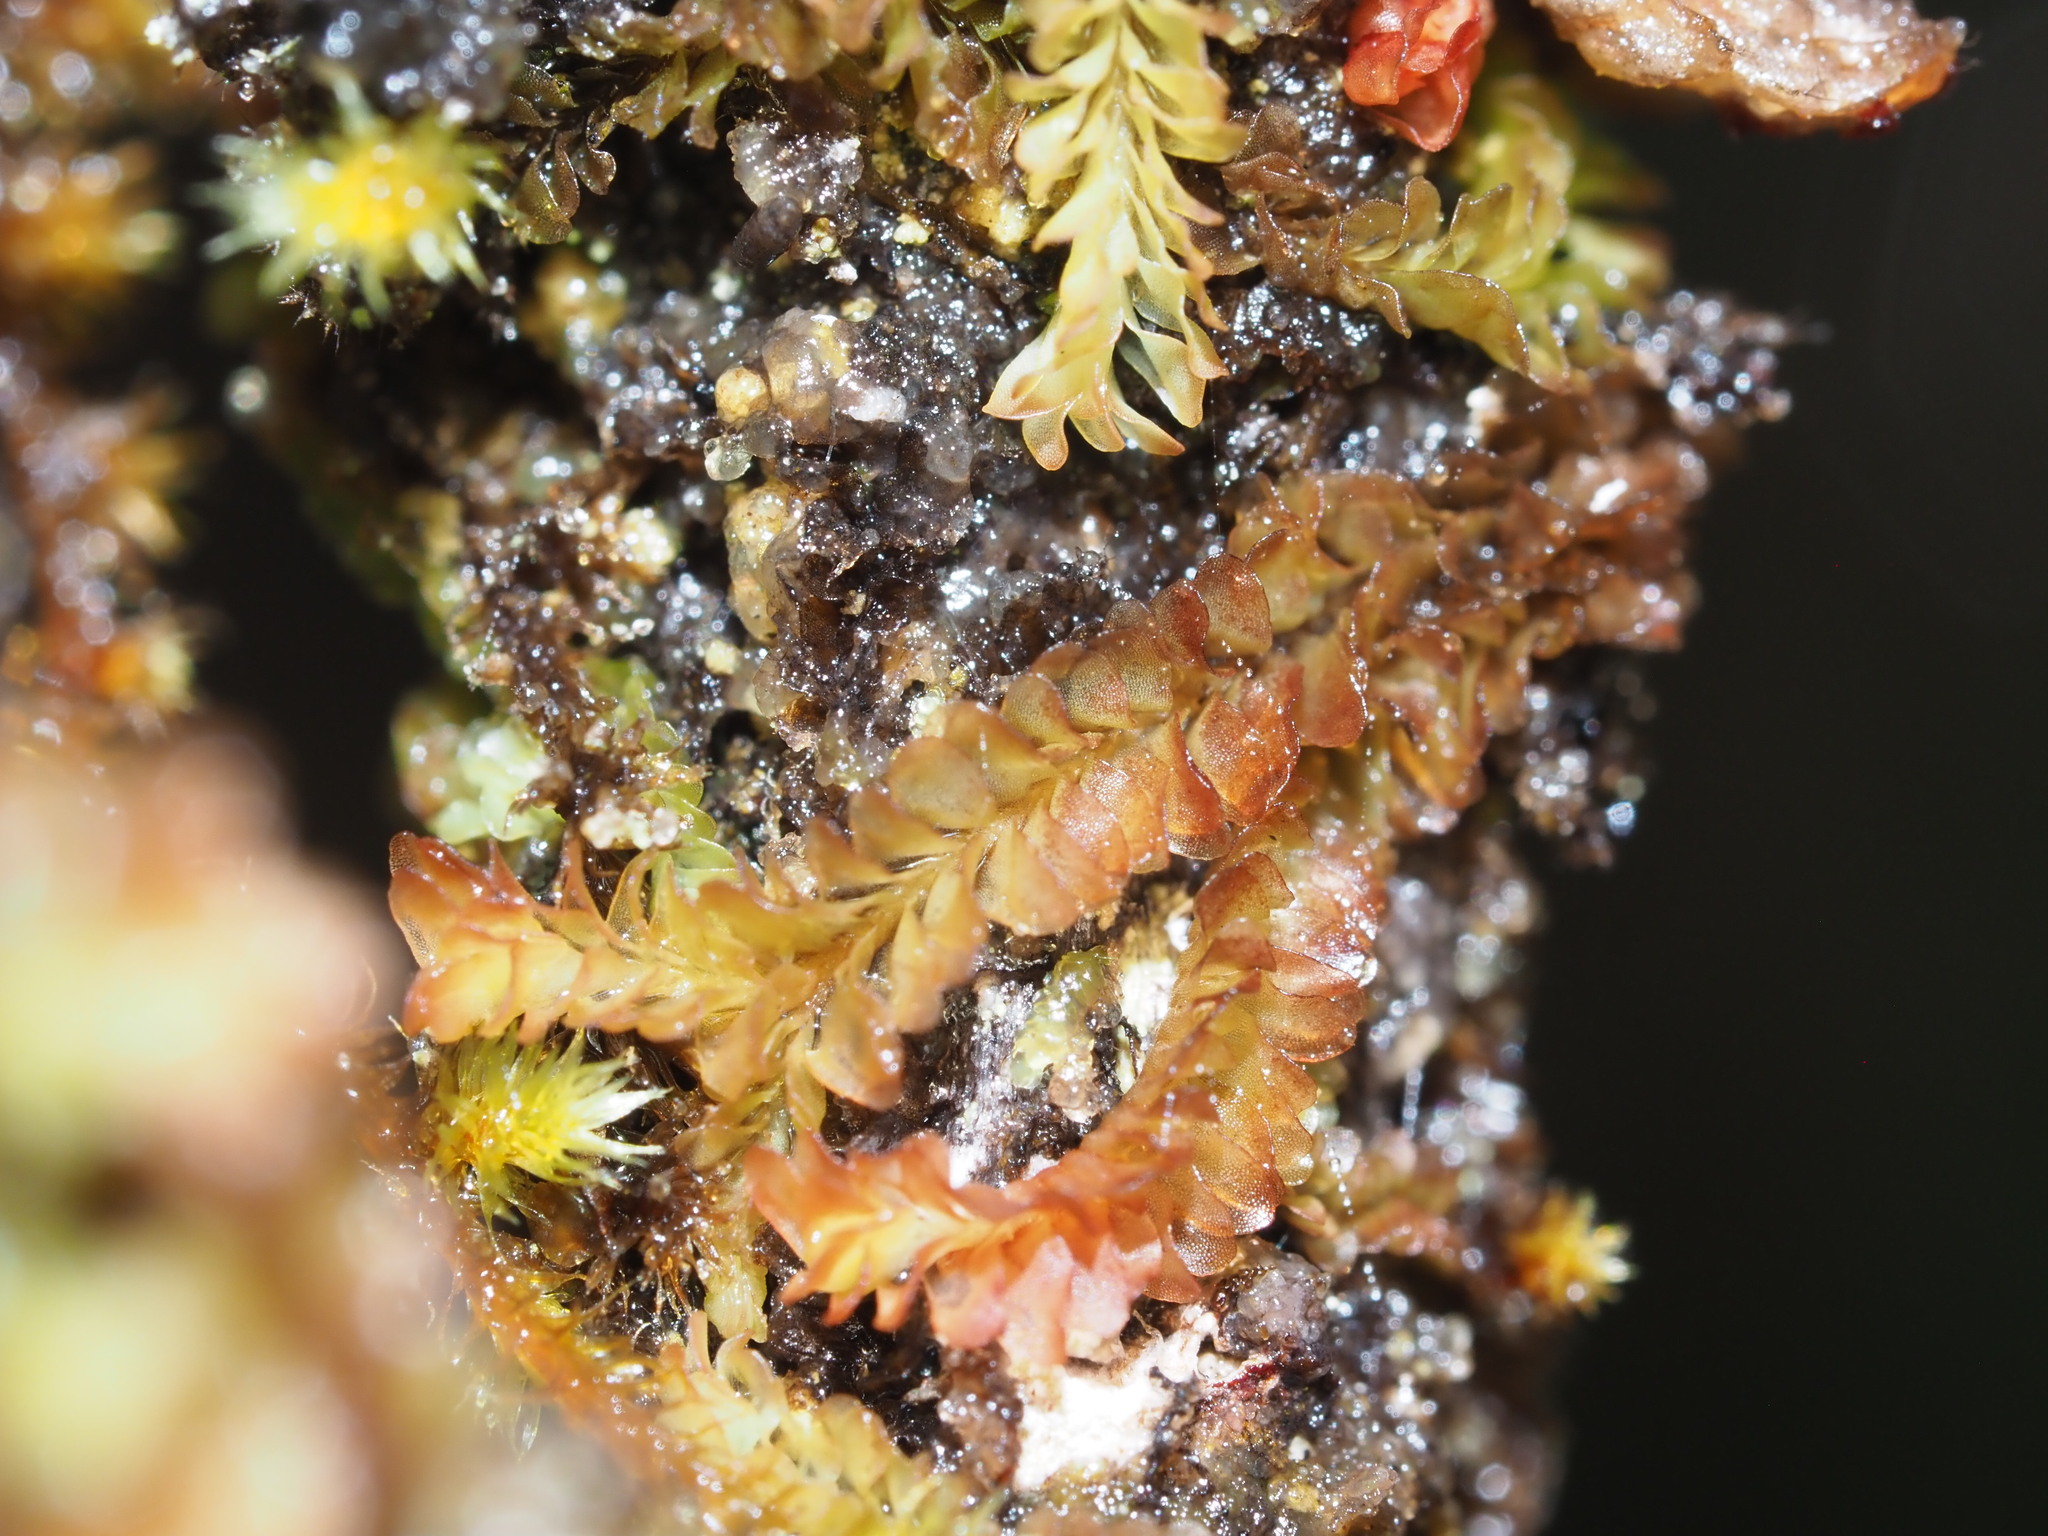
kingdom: Plantae
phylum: Marchantiophyta
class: Jungermanniopsida
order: Jungermanniales
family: Adelanthaceae
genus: Cuspidatula
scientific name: Cuspidatula robusta
